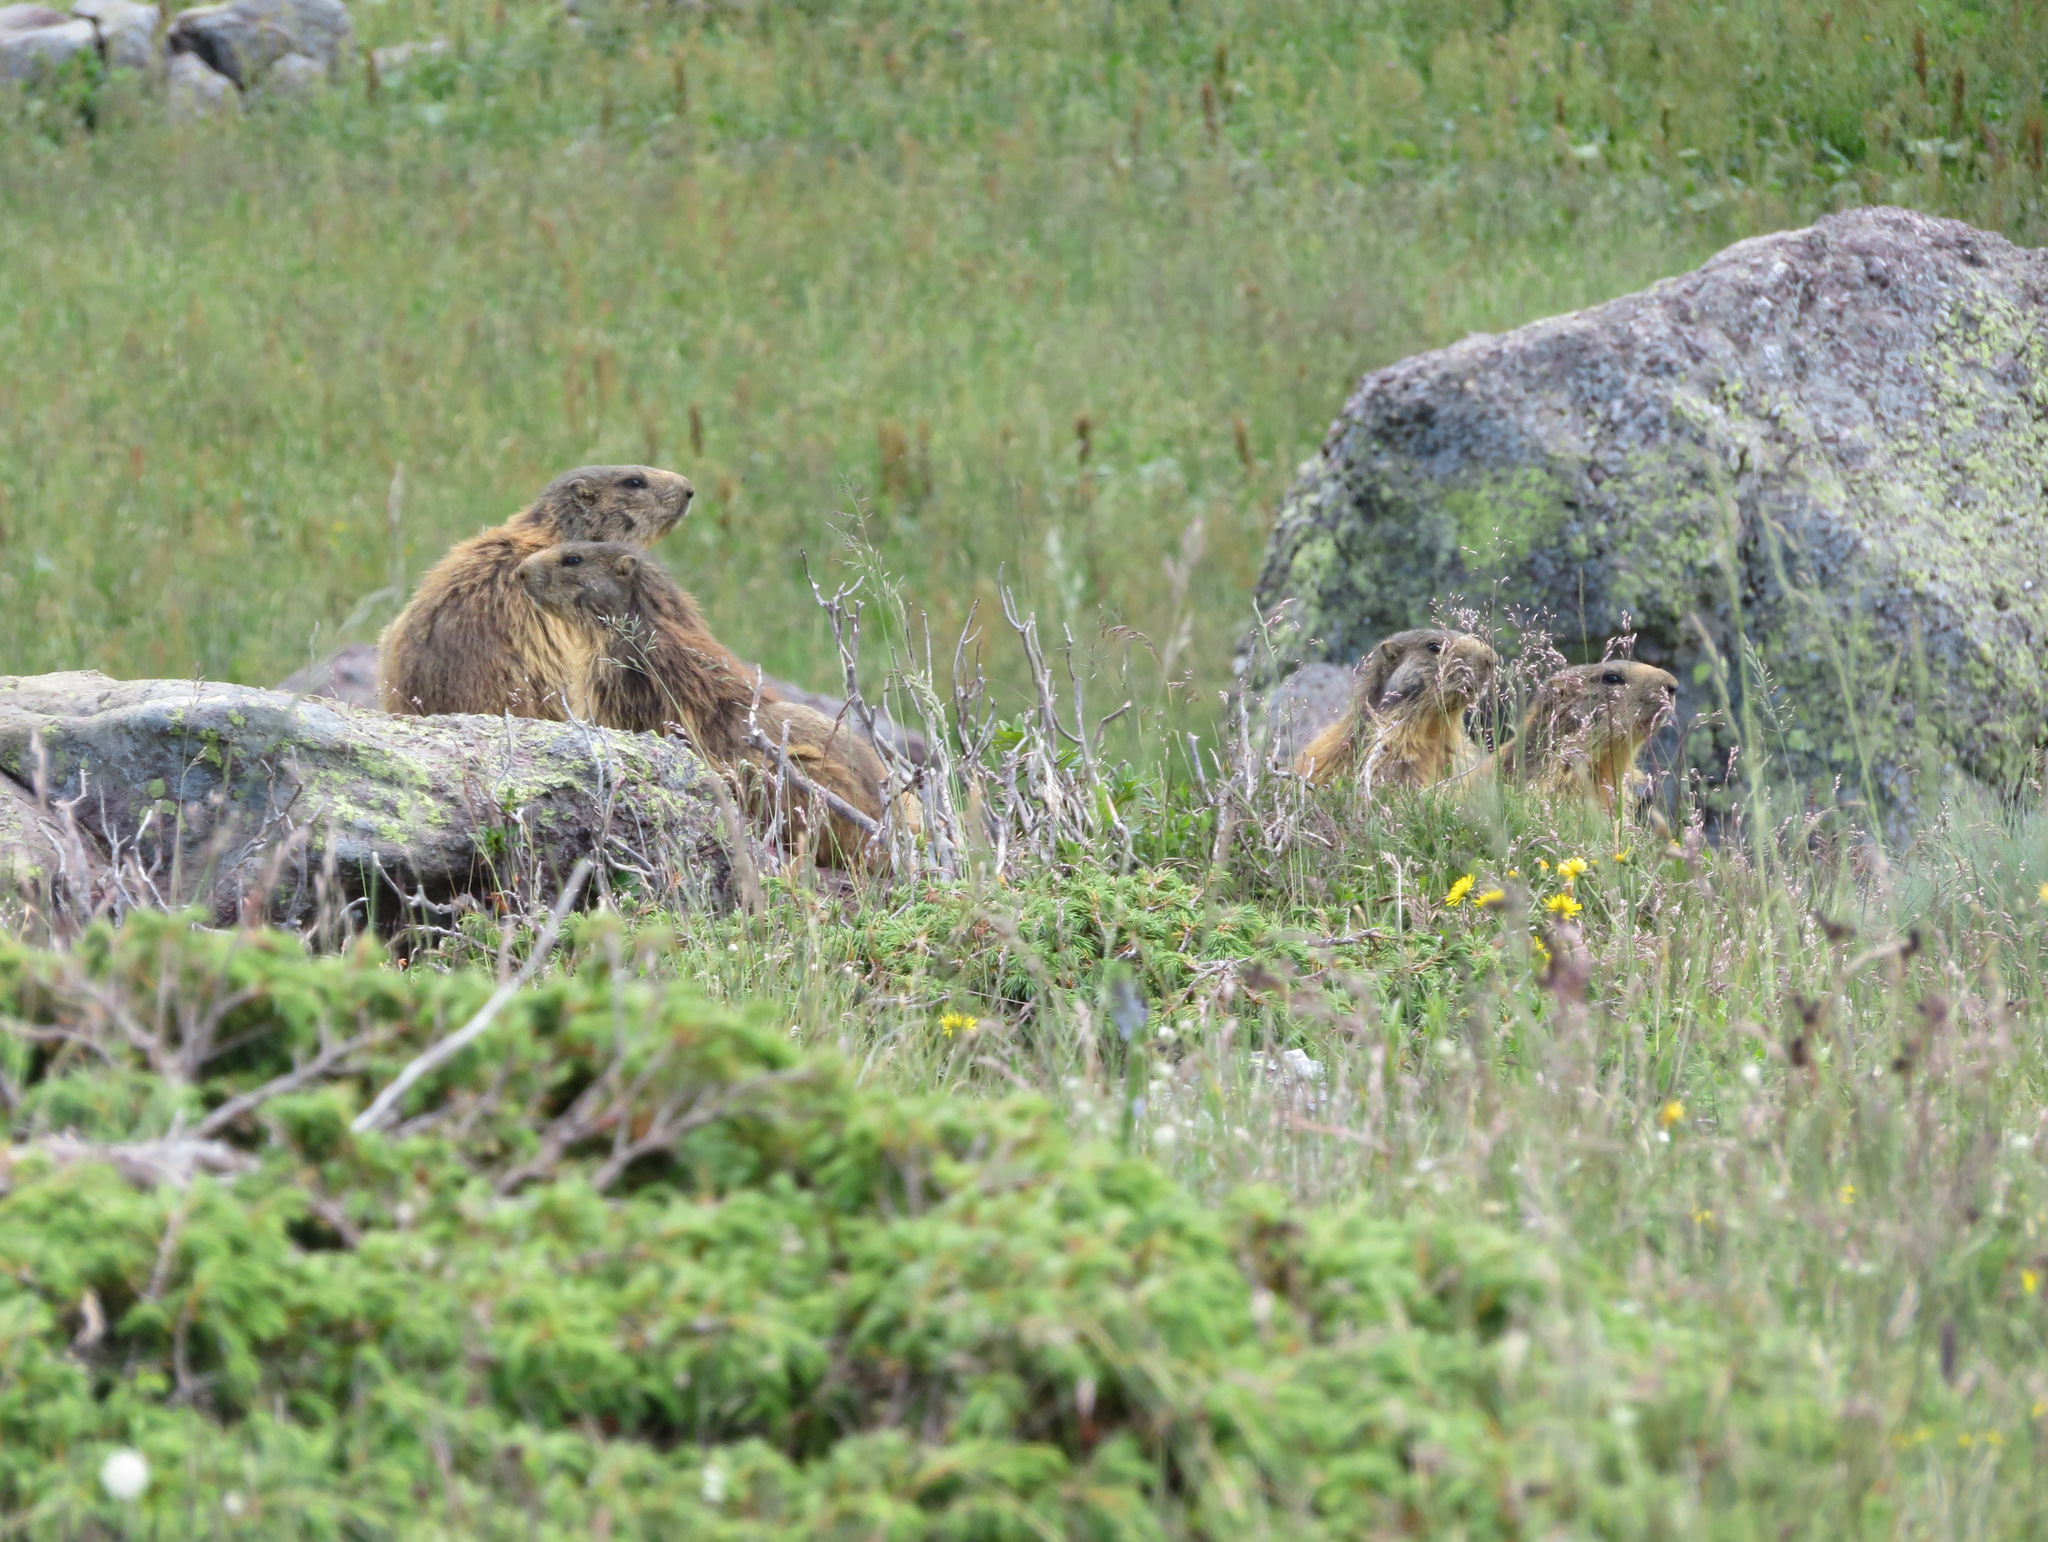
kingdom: Animalia
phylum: Chordata
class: Mammalia
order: Rodentia
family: Sciuridae
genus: Marmota
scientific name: Marmota marmota
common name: Alpine marmot
